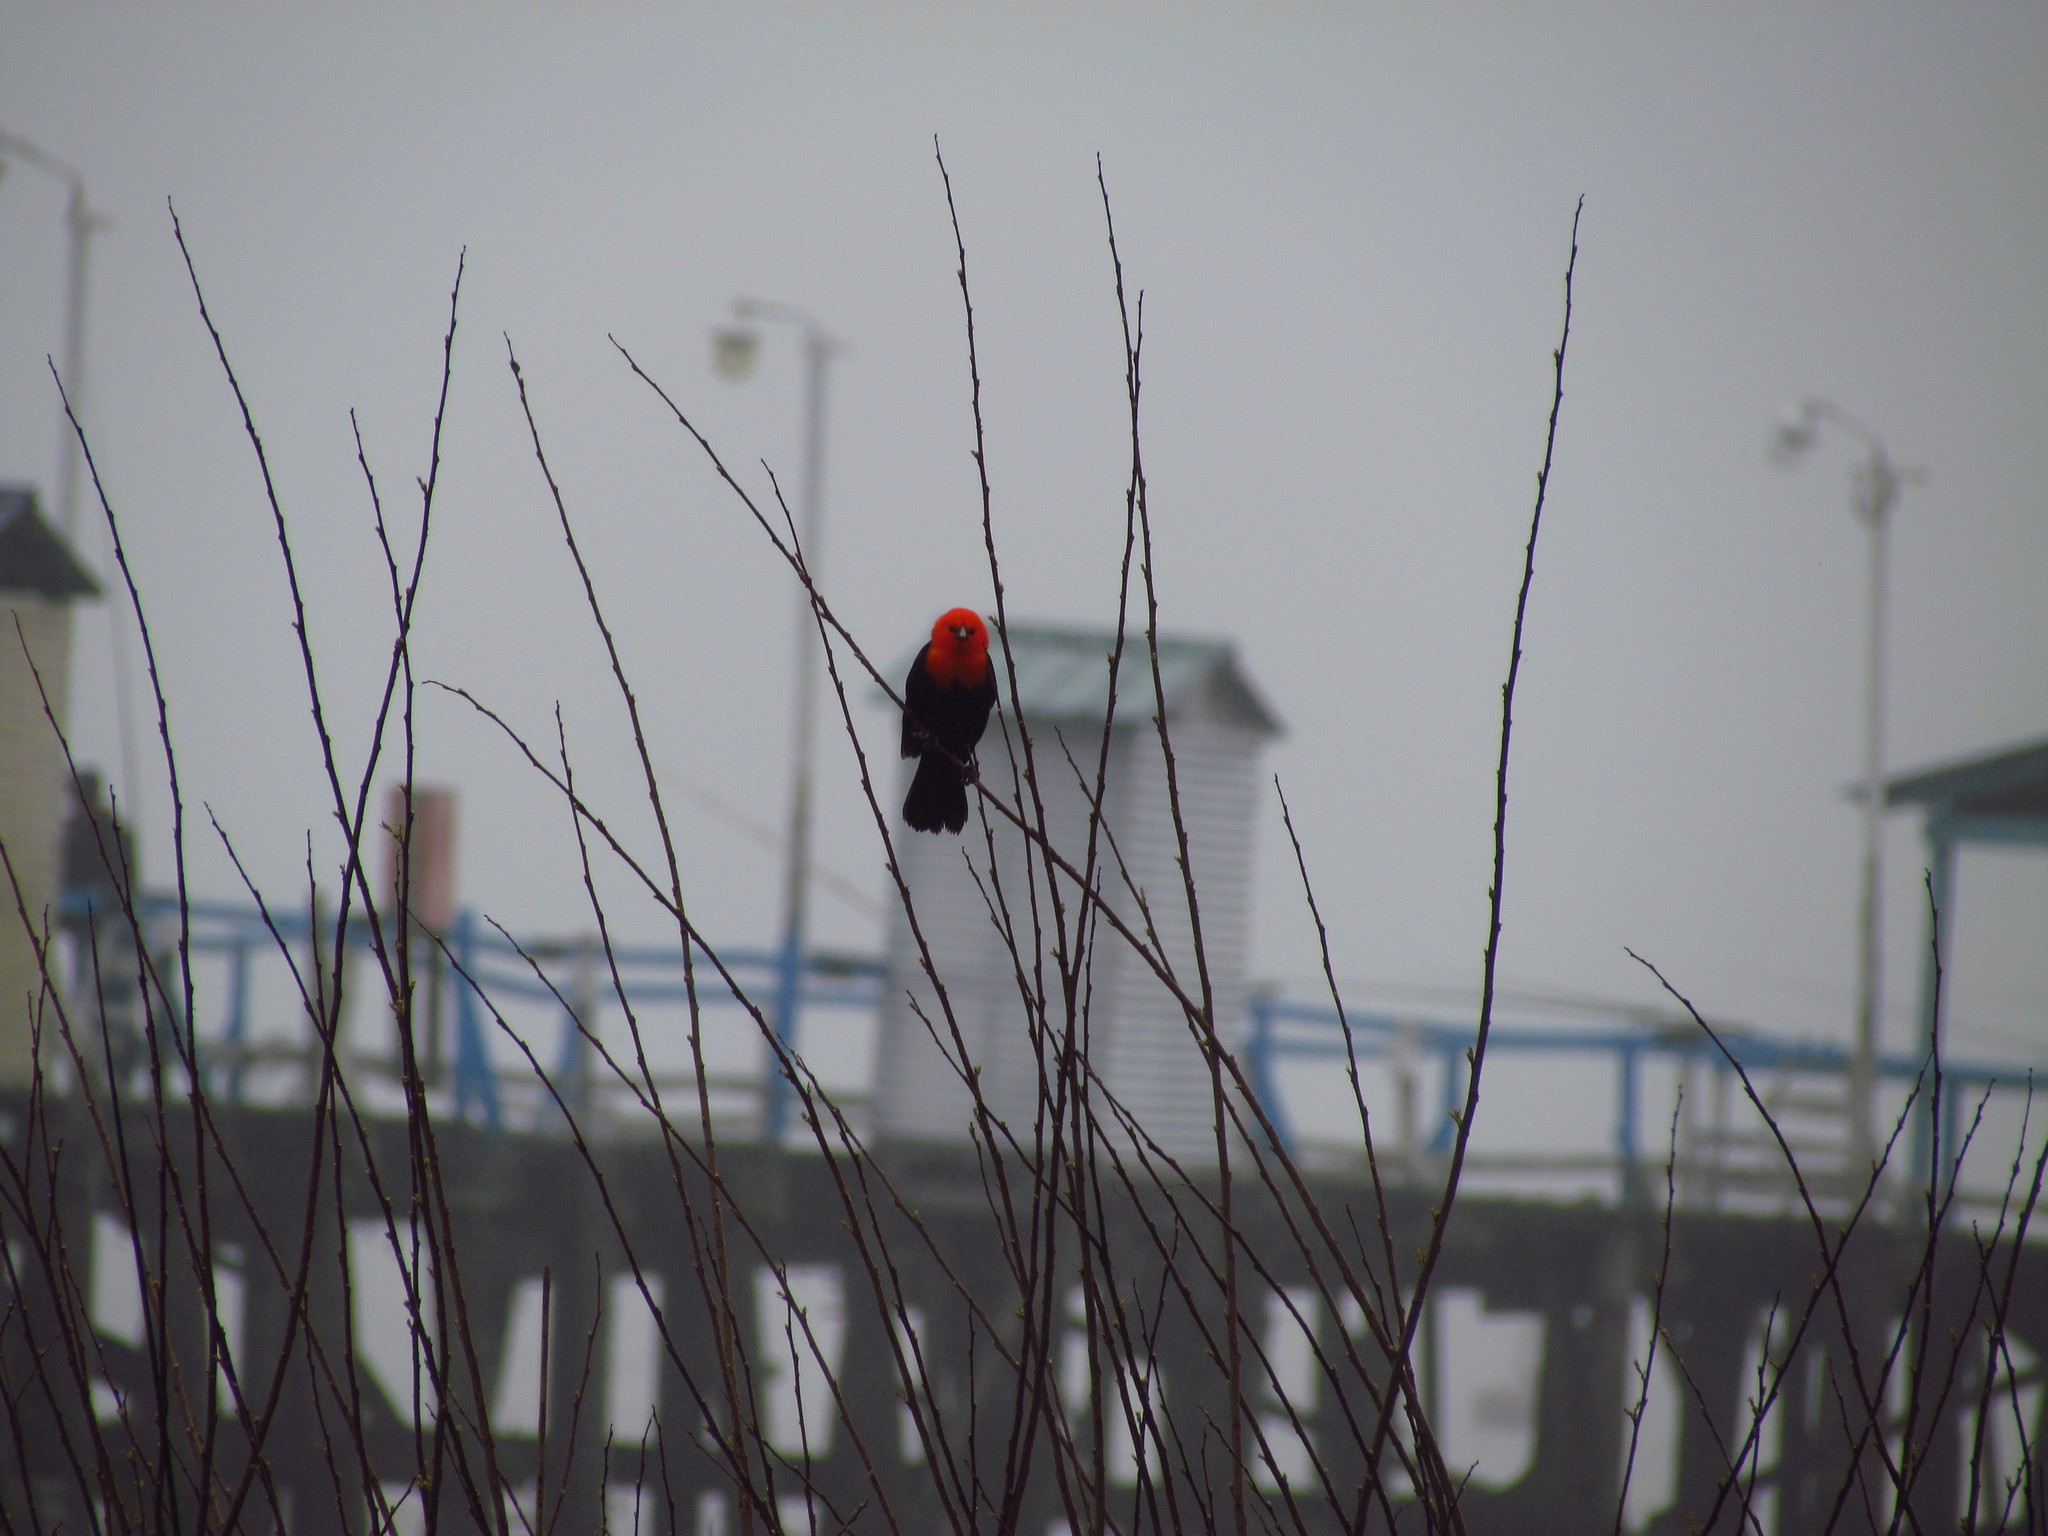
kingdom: Animalia
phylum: Chordata
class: Aves
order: Passeriformes
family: Icteridae
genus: Amblyramphus
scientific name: Amblyramphus holosericeus
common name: Scarlet-headed blackbird
